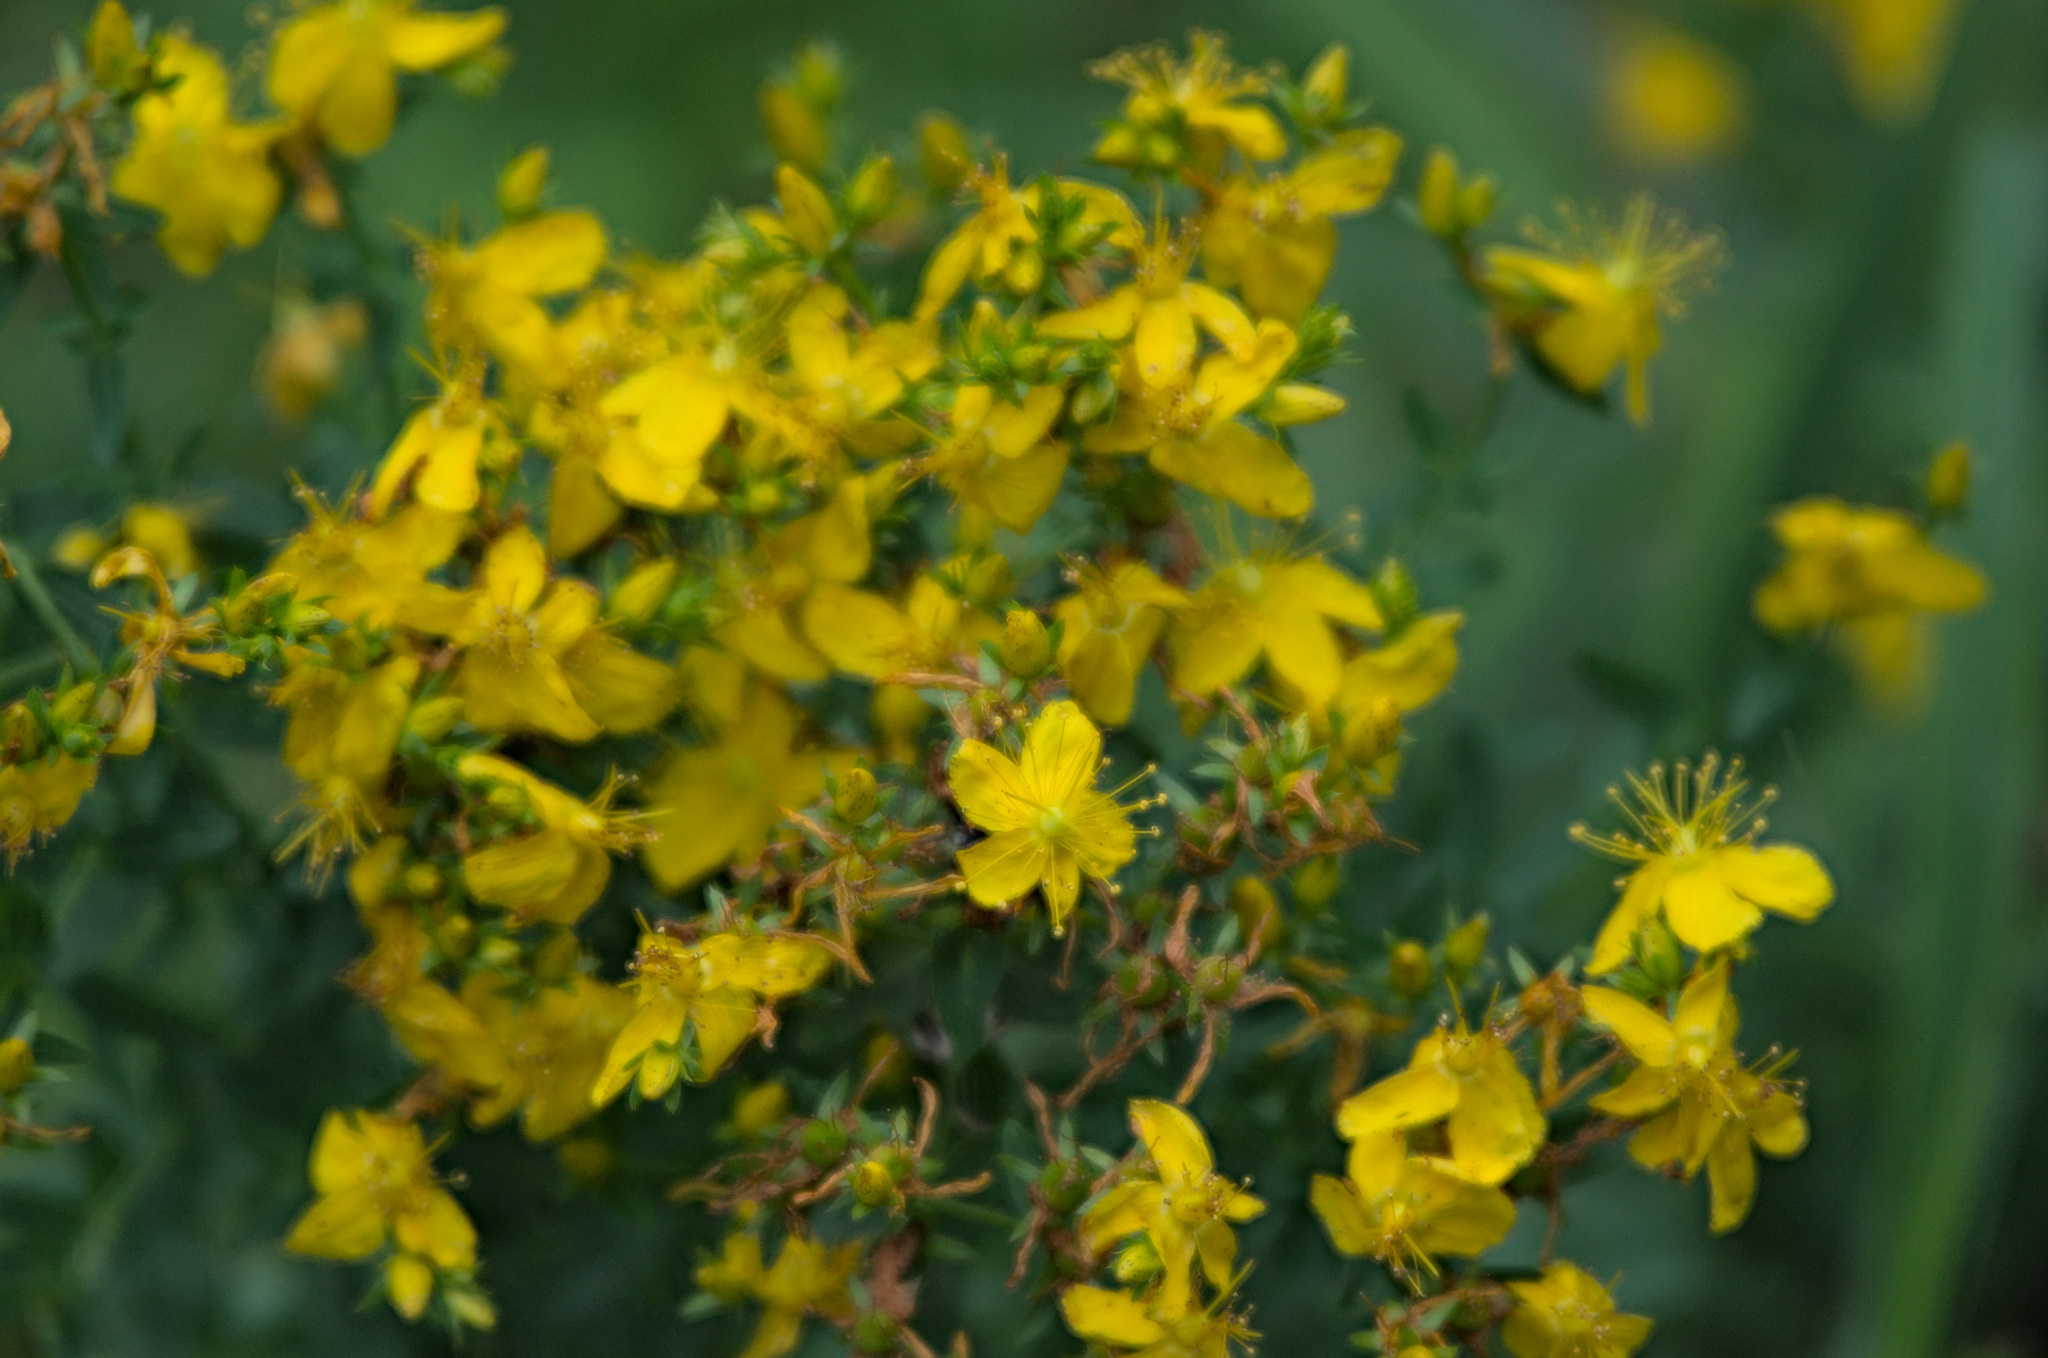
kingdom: Plantae
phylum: Tracheophyta
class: Magnoliopsida
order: Malpighiales
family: Hypericaceae
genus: Hypericum
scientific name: Hypericum perforatum
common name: Common st. johnswort
